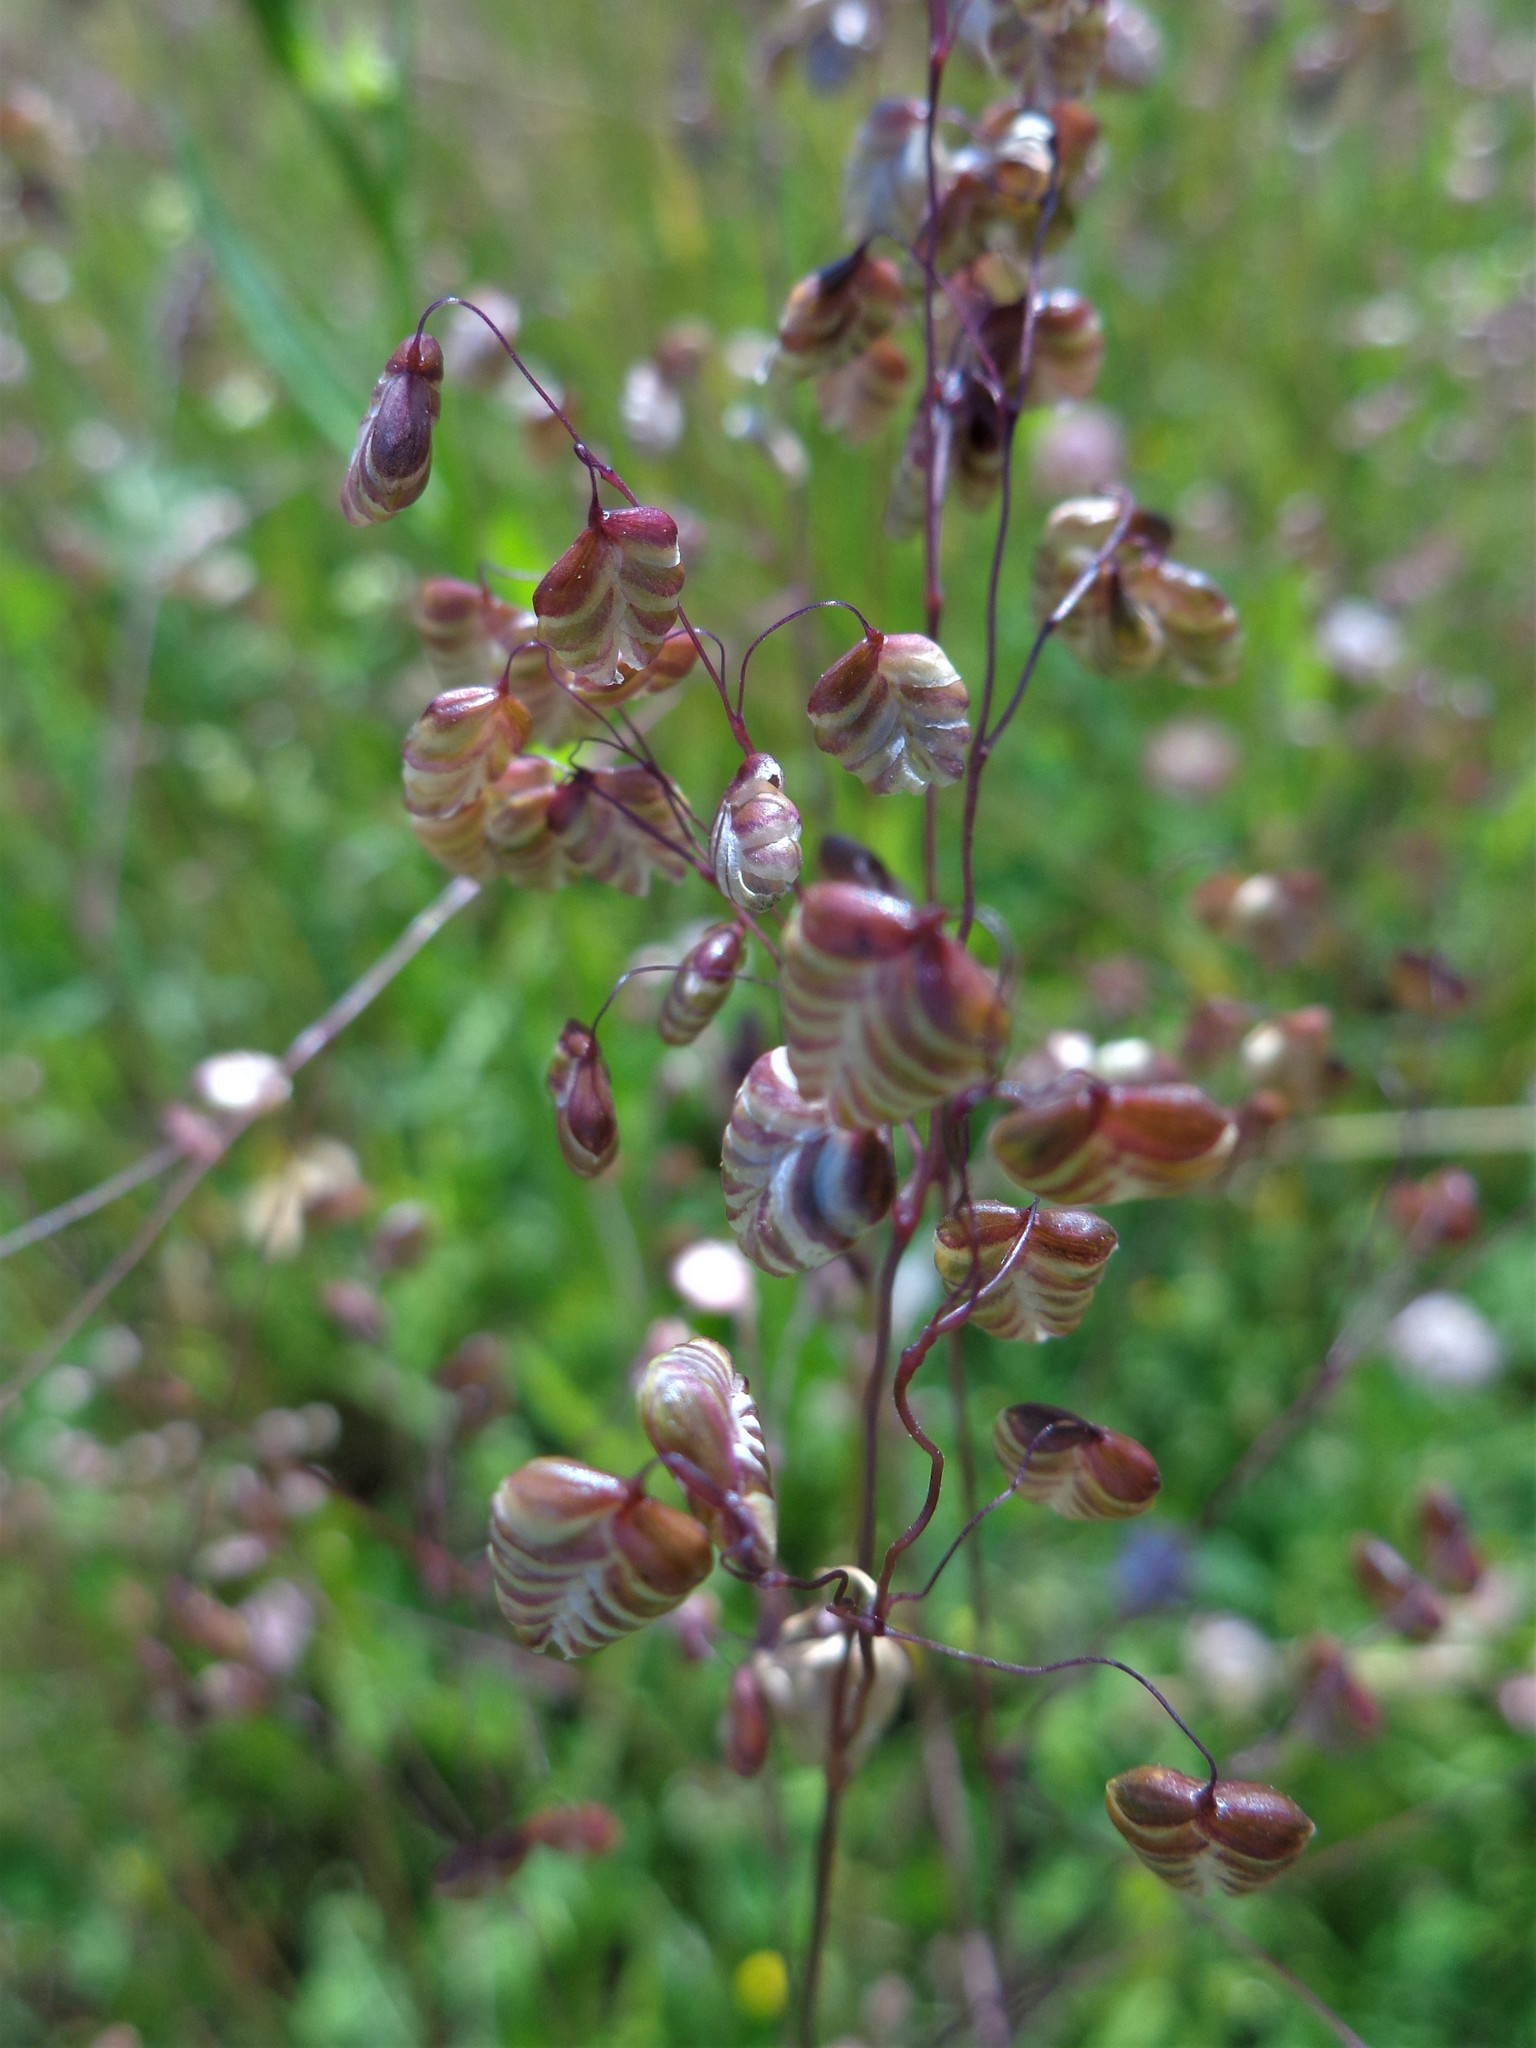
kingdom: Plantae
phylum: Tracheophyta
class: Liliopsida
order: Poales
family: Poaceae
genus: Briza
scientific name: Briza media
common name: Quaking grass
